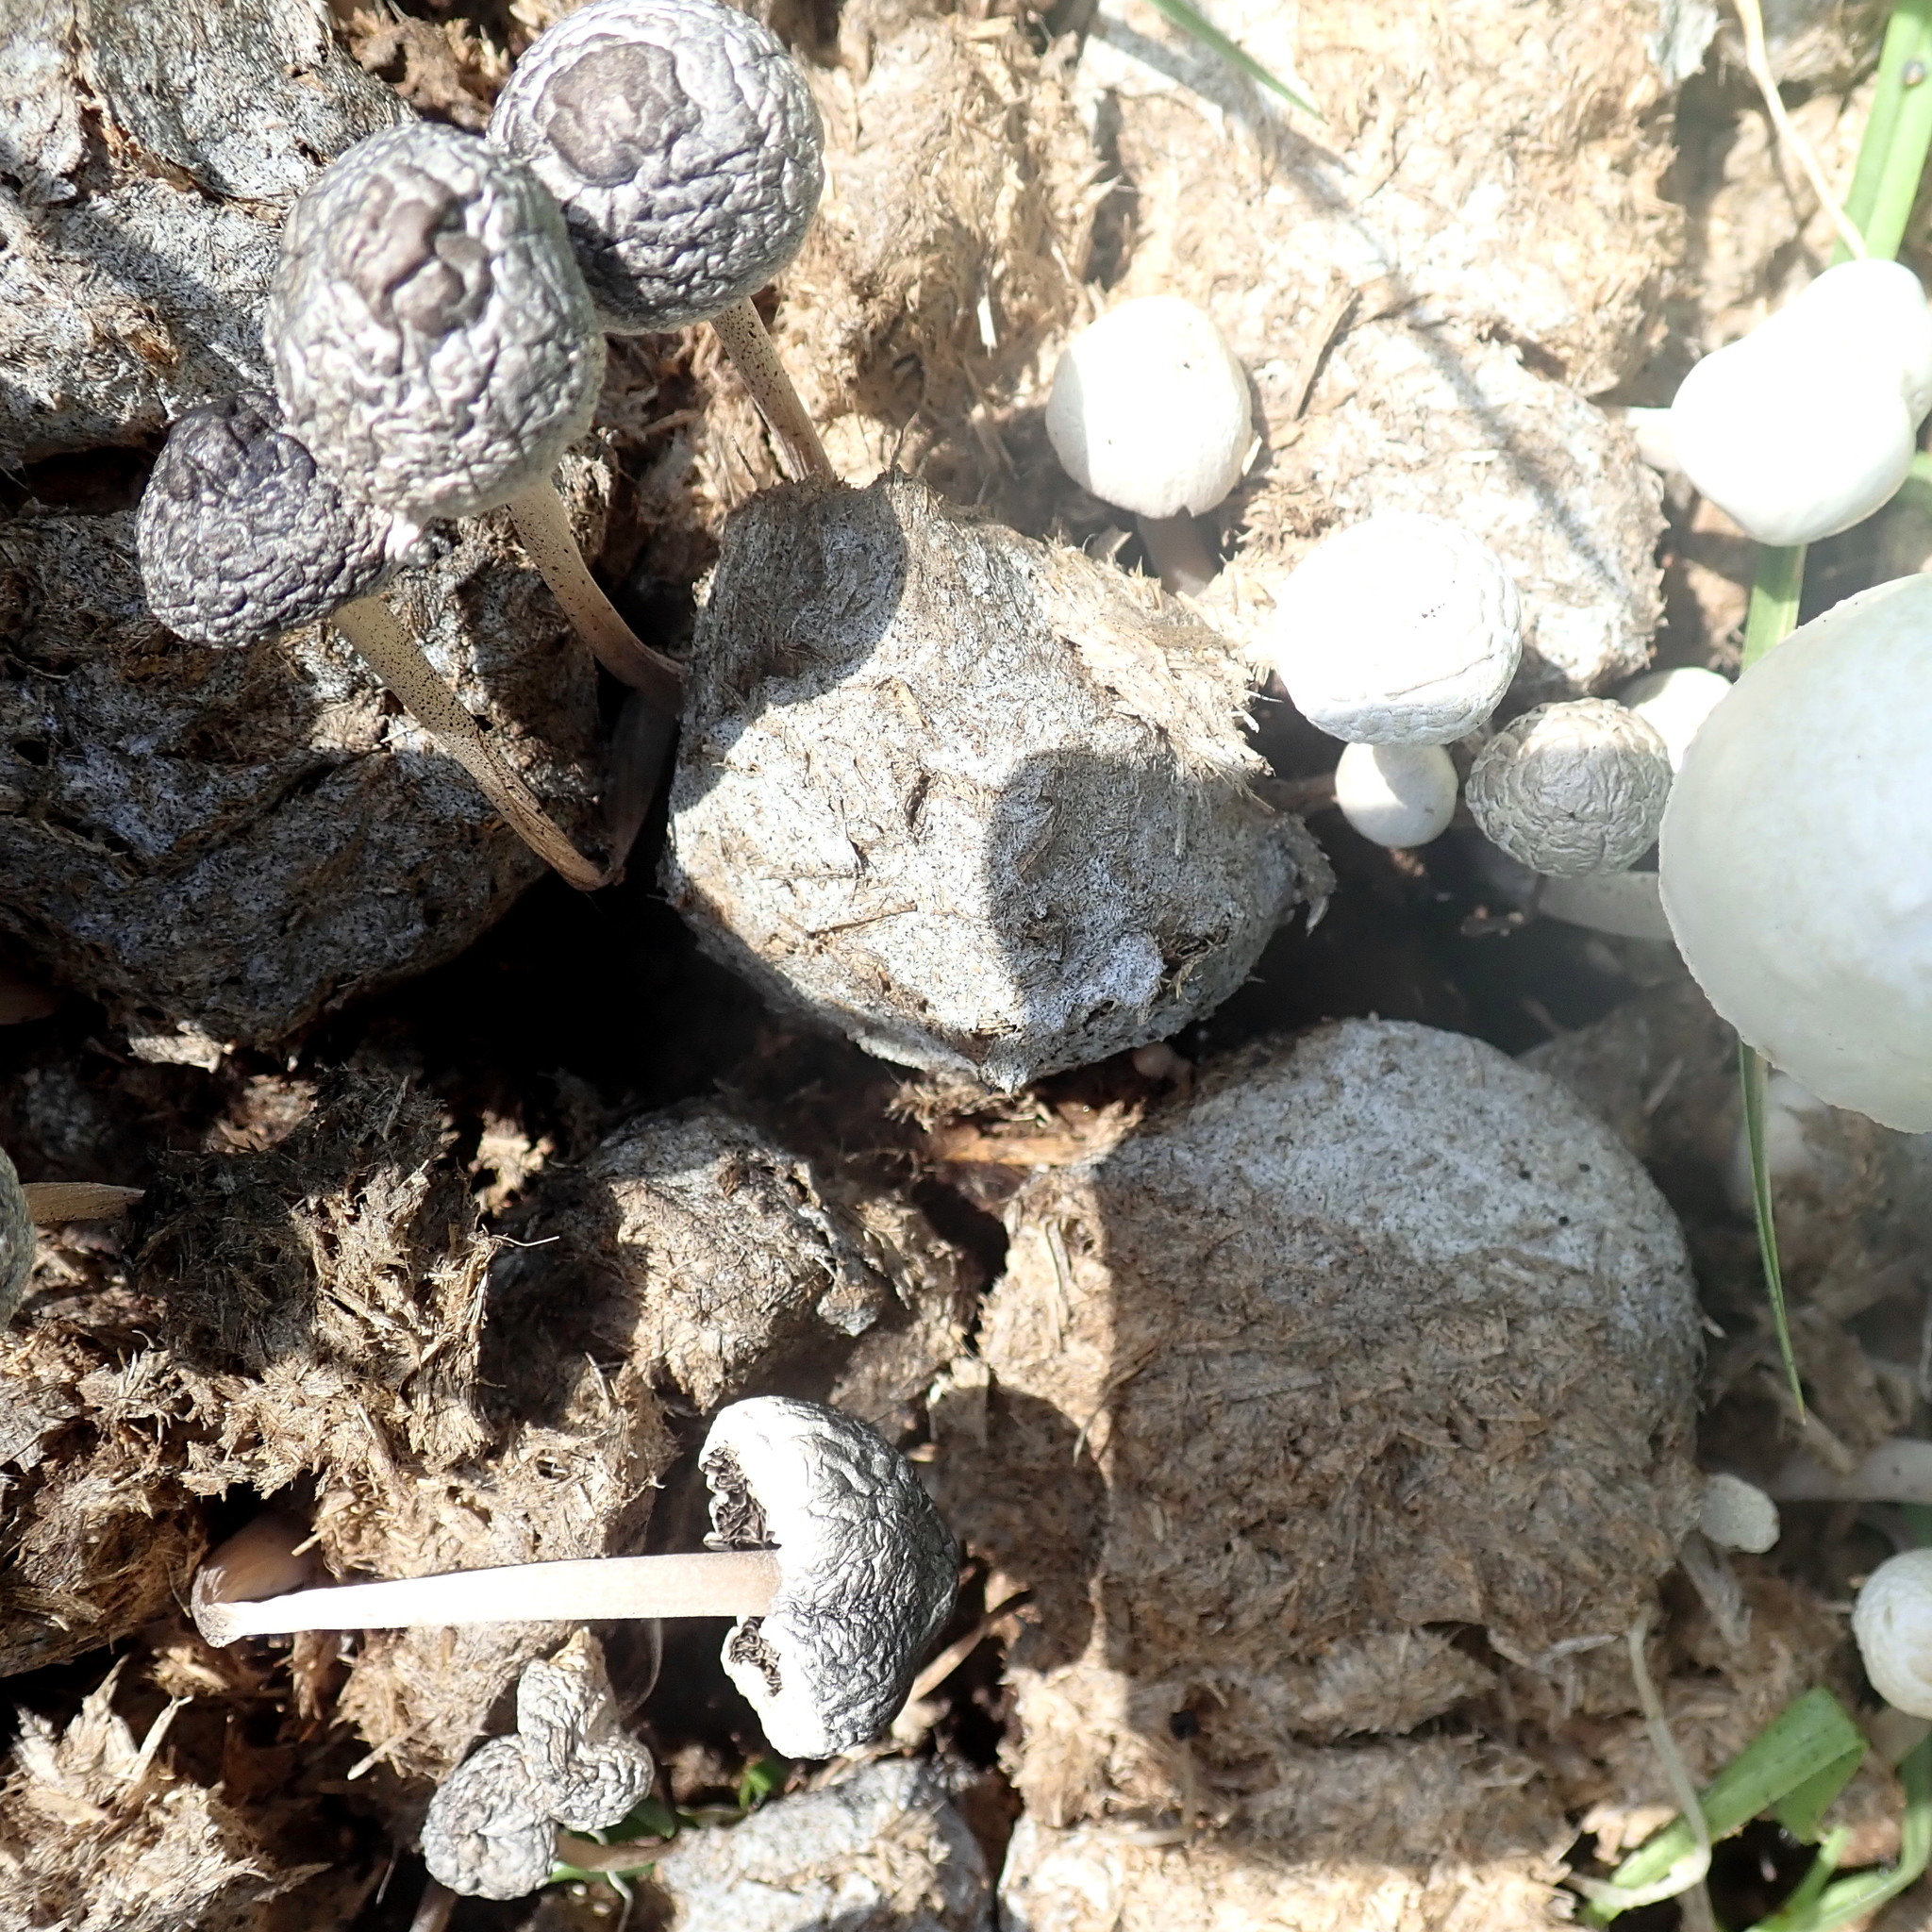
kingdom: Fungi
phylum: Basidiomycota
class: Agaricomycetes
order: Agaricales
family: Bolbitiaceae
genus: Panaeolus
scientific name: Panaeolus antillarum
